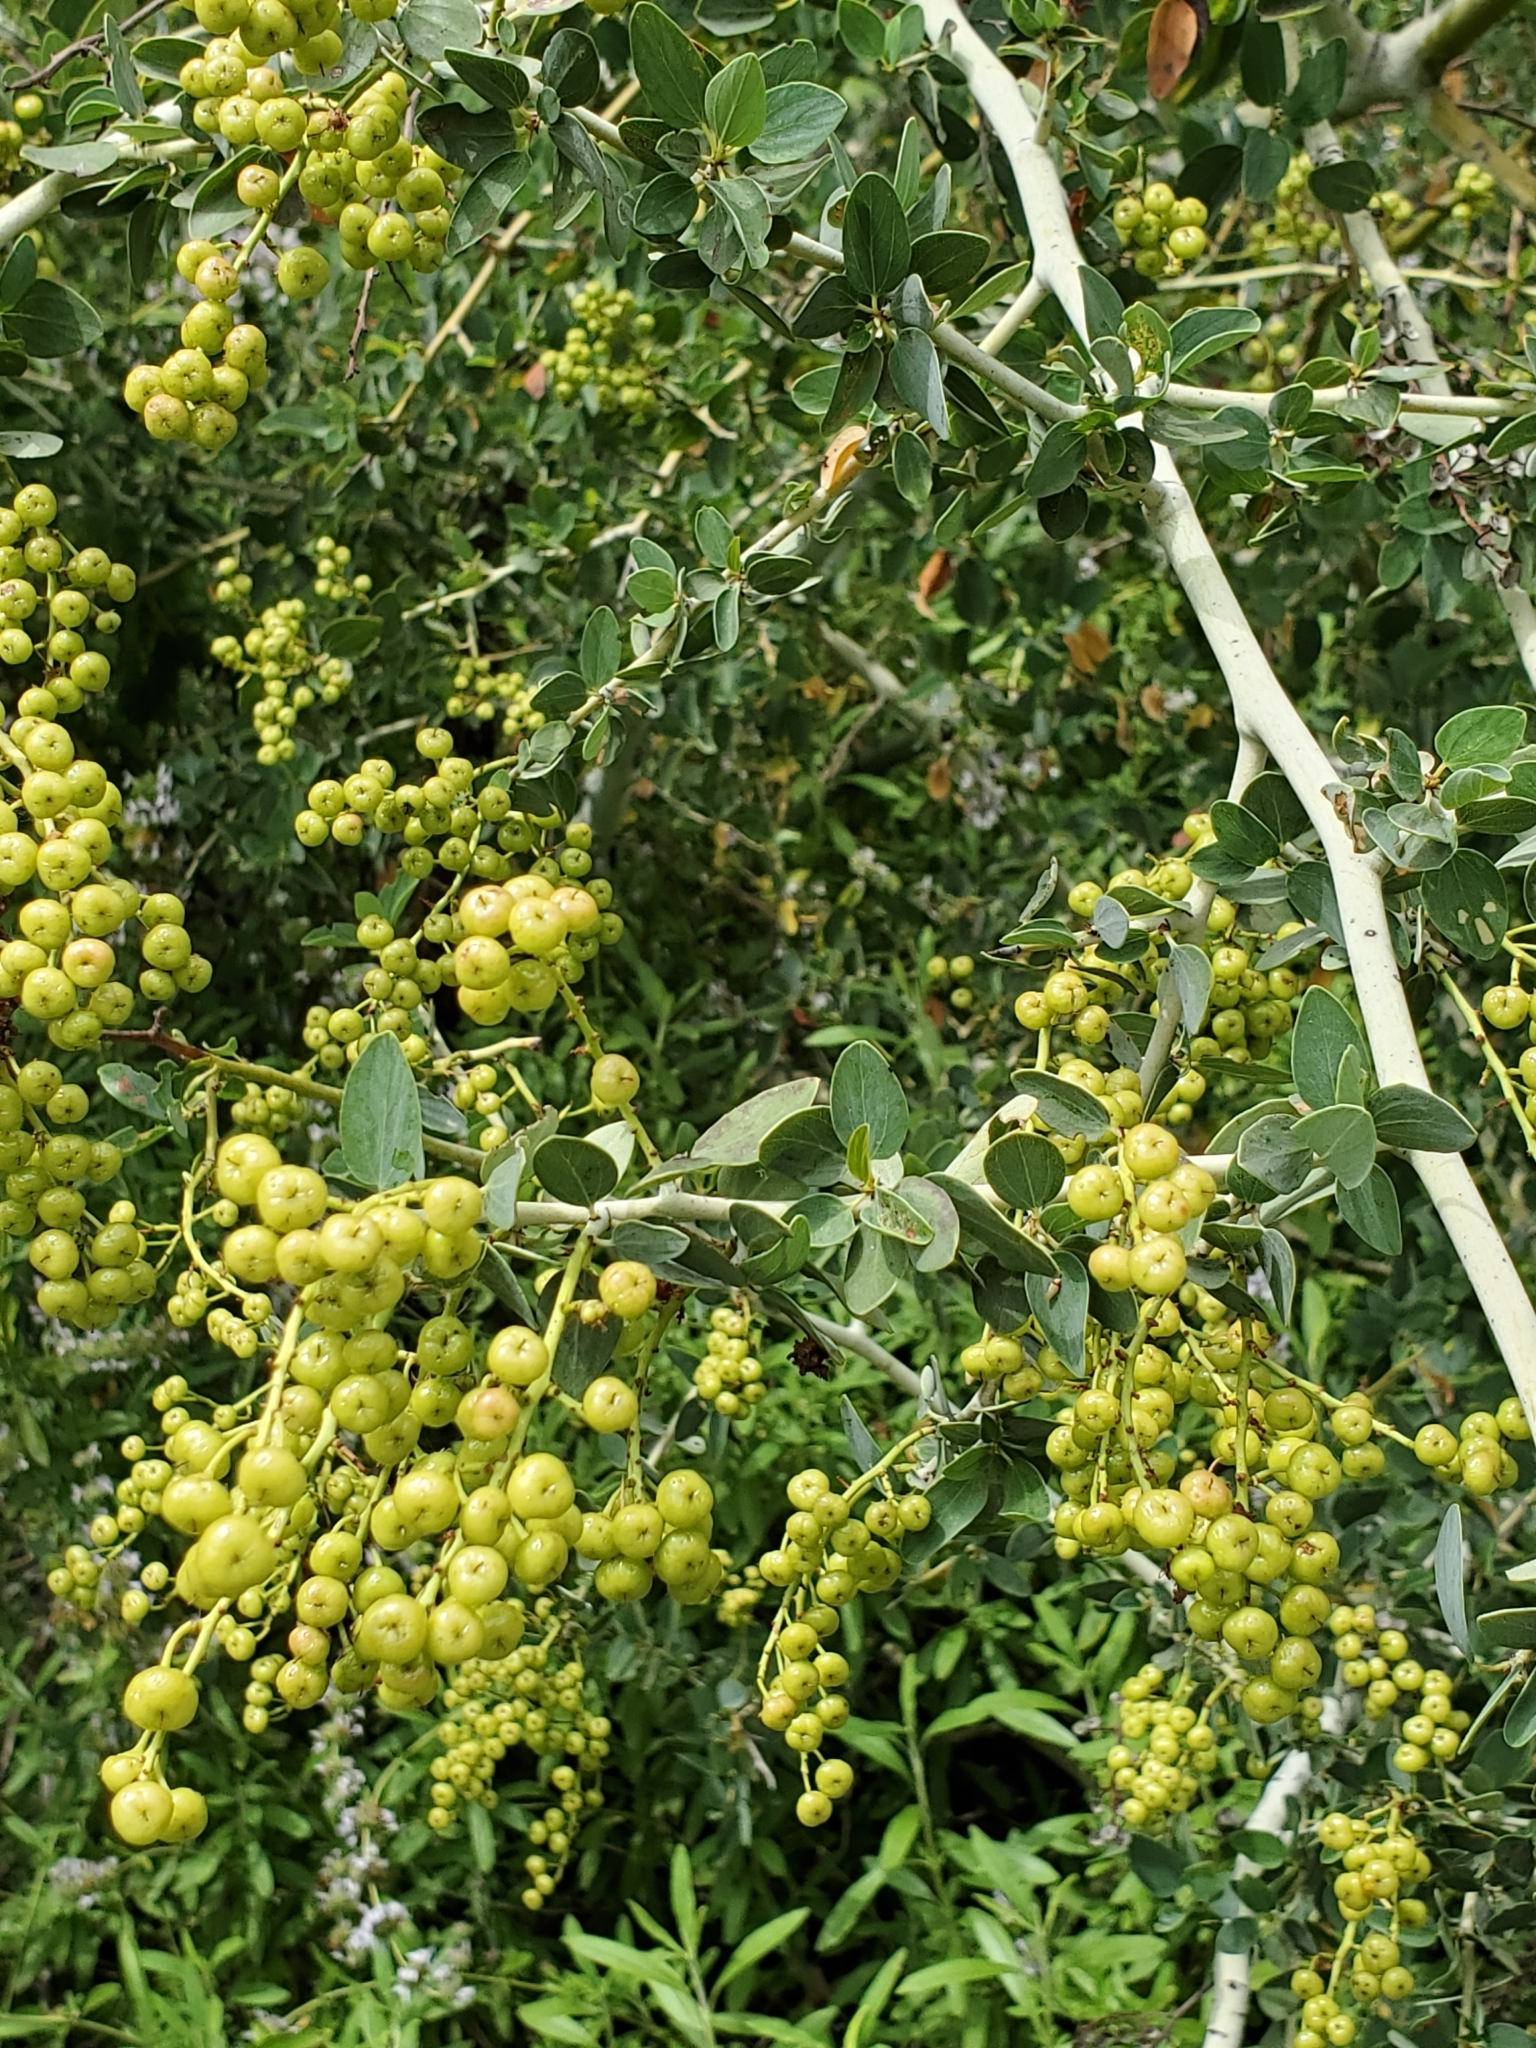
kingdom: Plantae
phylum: Tracheophyta
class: Magnoliopsida
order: Rosales
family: Rhamnaceae
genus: Ceanothus
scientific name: Ceanothus leucodermis
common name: Chaparral whitethorn
